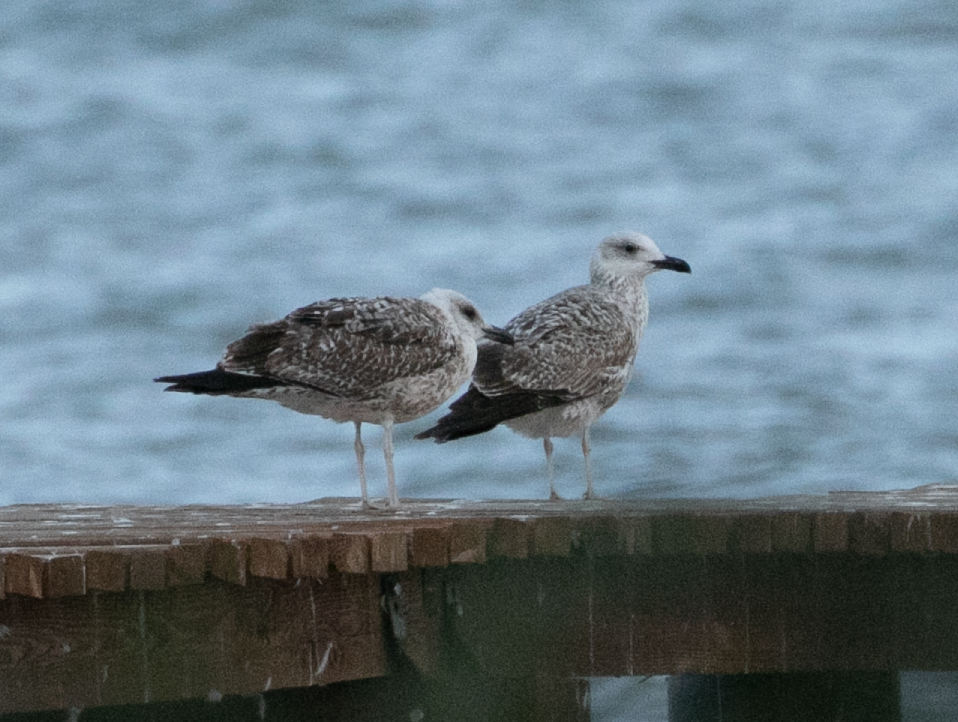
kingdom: Animalia
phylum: Chordata
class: Aves
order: Charadriiformes
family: Laridae
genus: Larus
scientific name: Larus michahellis
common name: Yellow-legged gull
